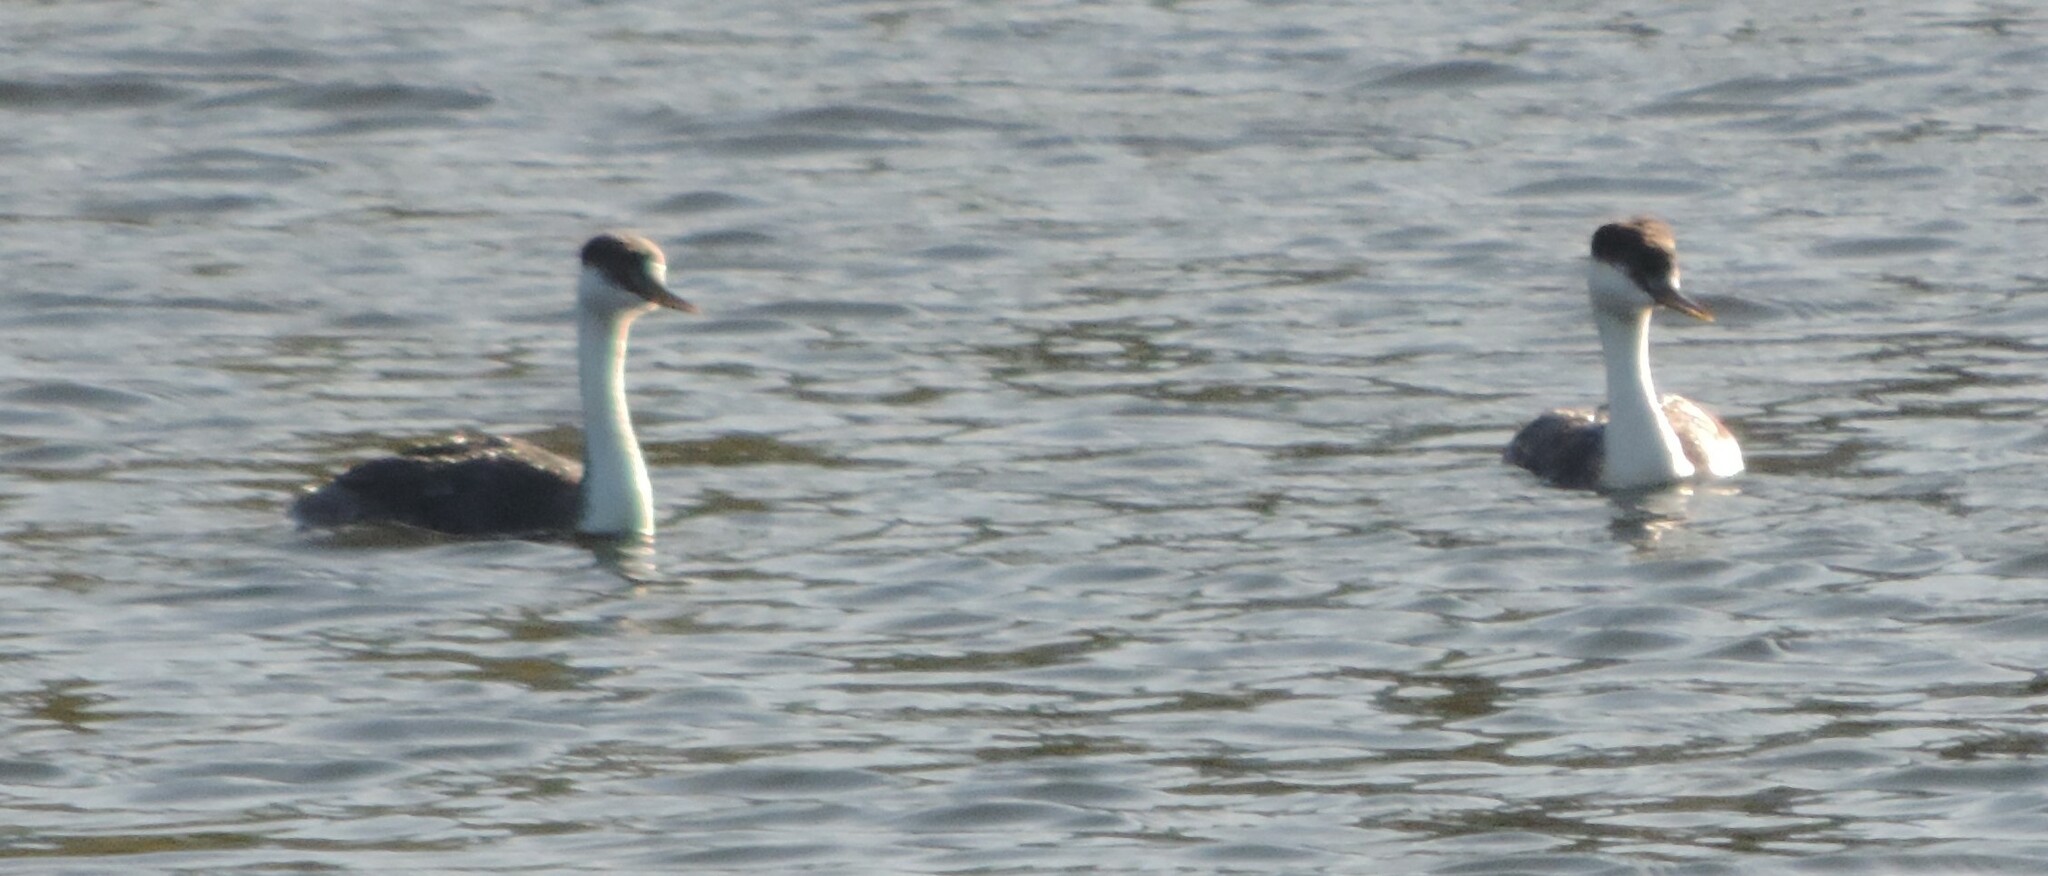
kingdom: Animalia
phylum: Chordata
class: Aves
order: Podicipediformes
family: Podicipedidae
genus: Aechmophorus
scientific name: Aechmophorus occidentalis
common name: Western grebe
